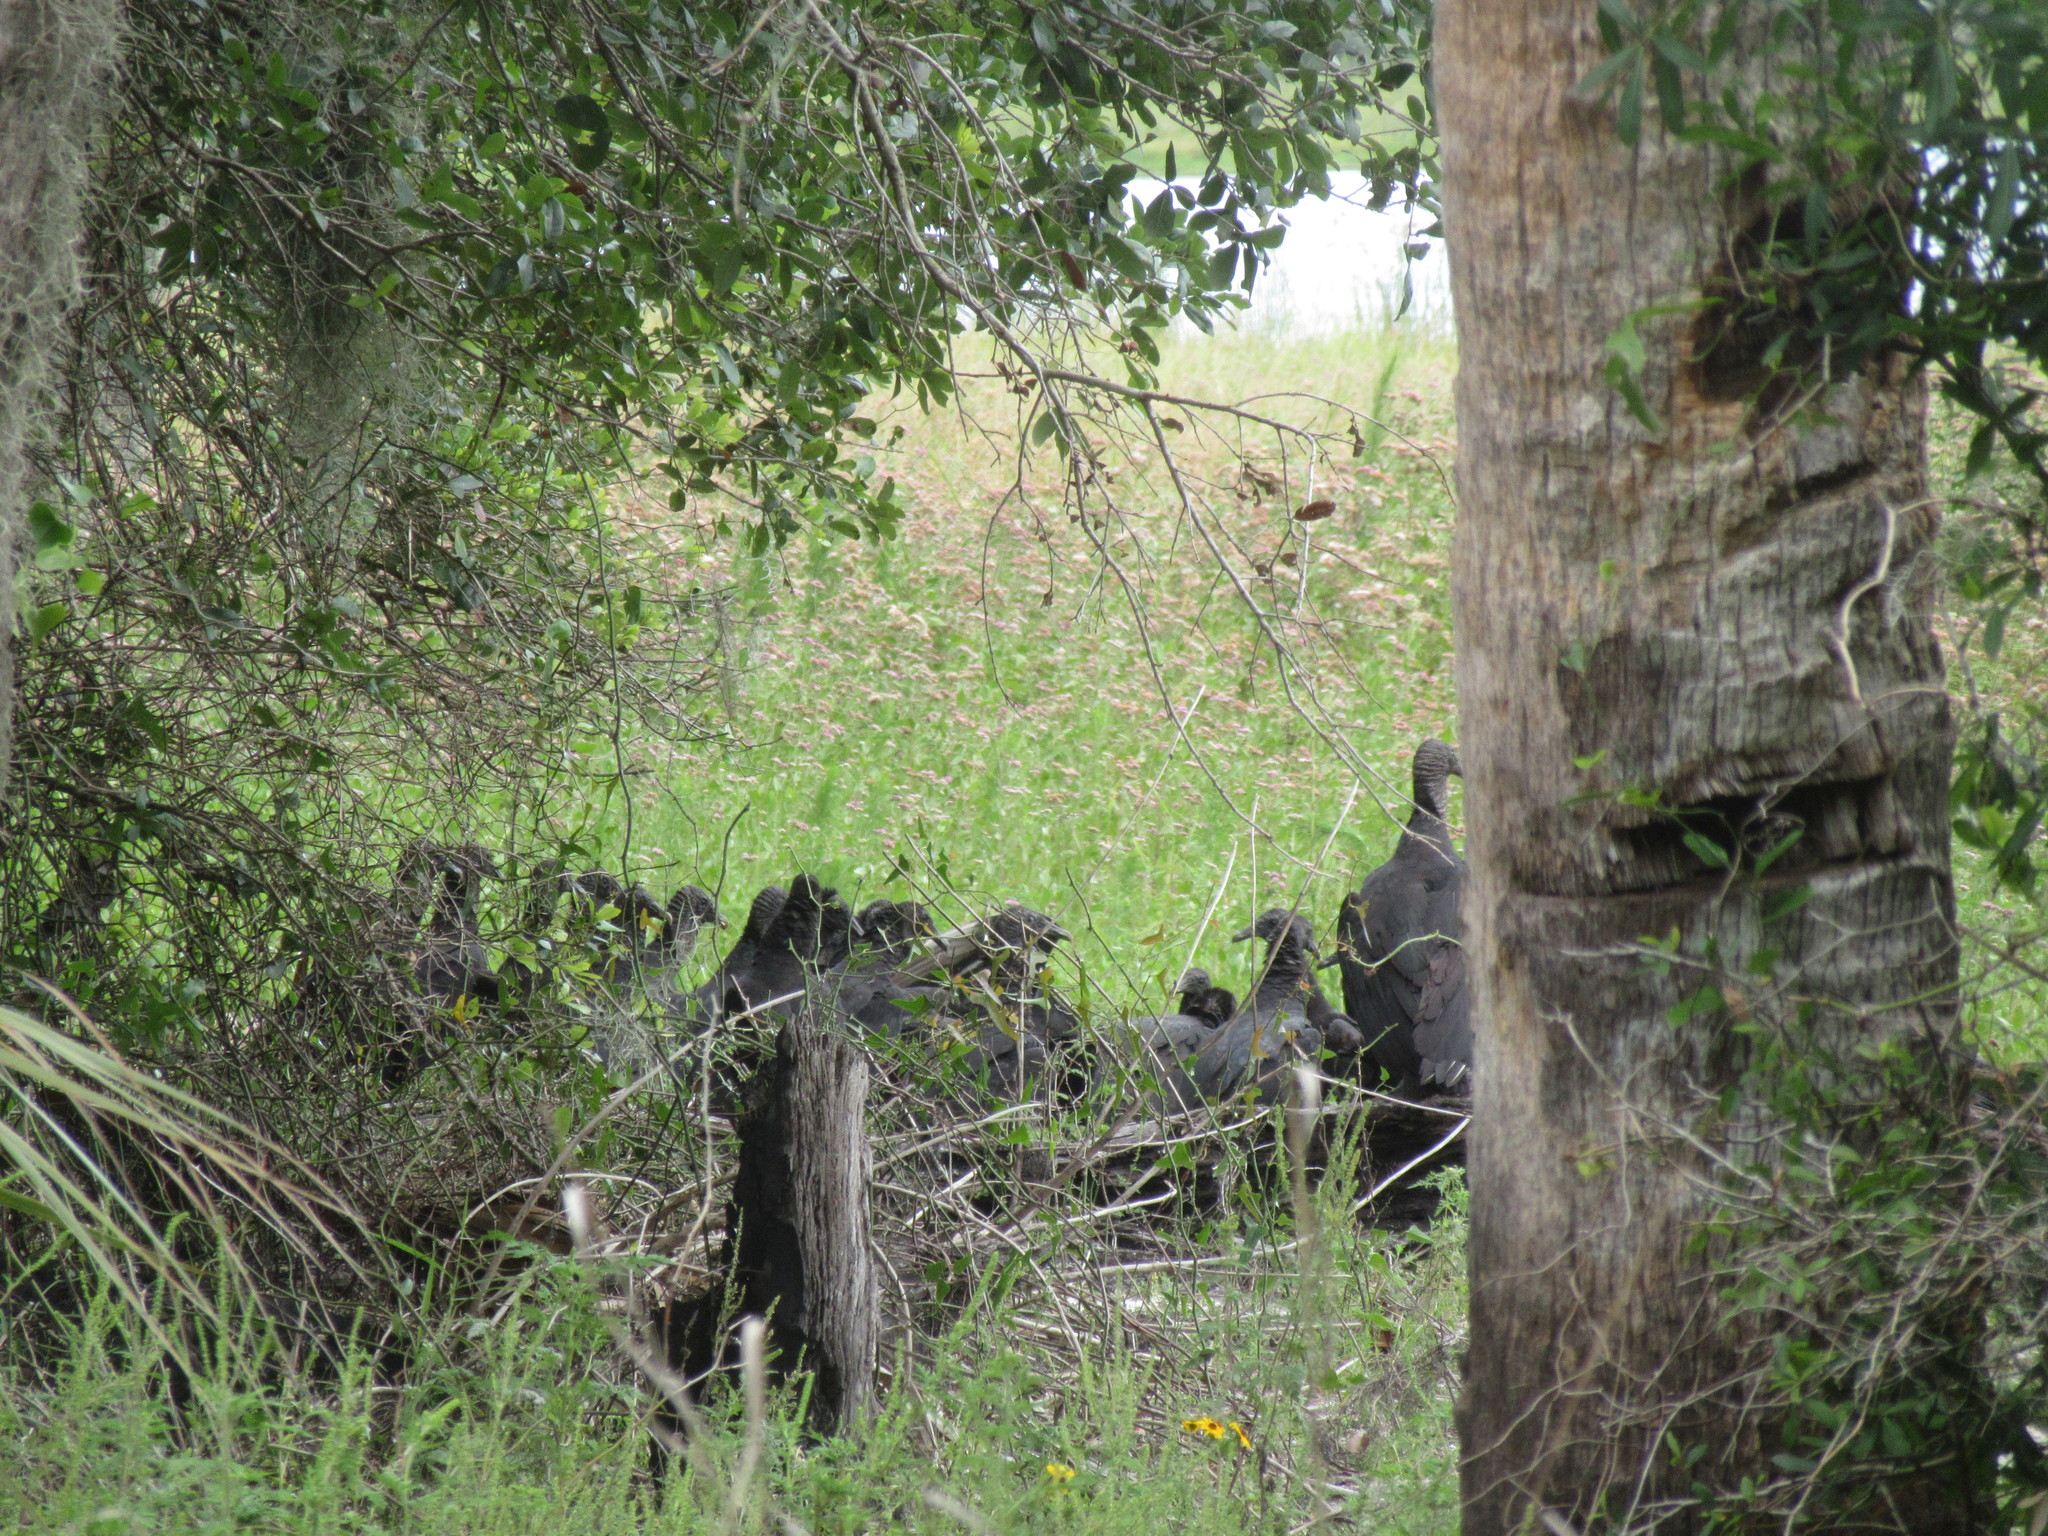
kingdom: Animalia
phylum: Chordata
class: Aves
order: Accipitriformes
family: Cathartidae
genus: Coragyps
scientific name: Coragyps atratus
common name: Black vulture
